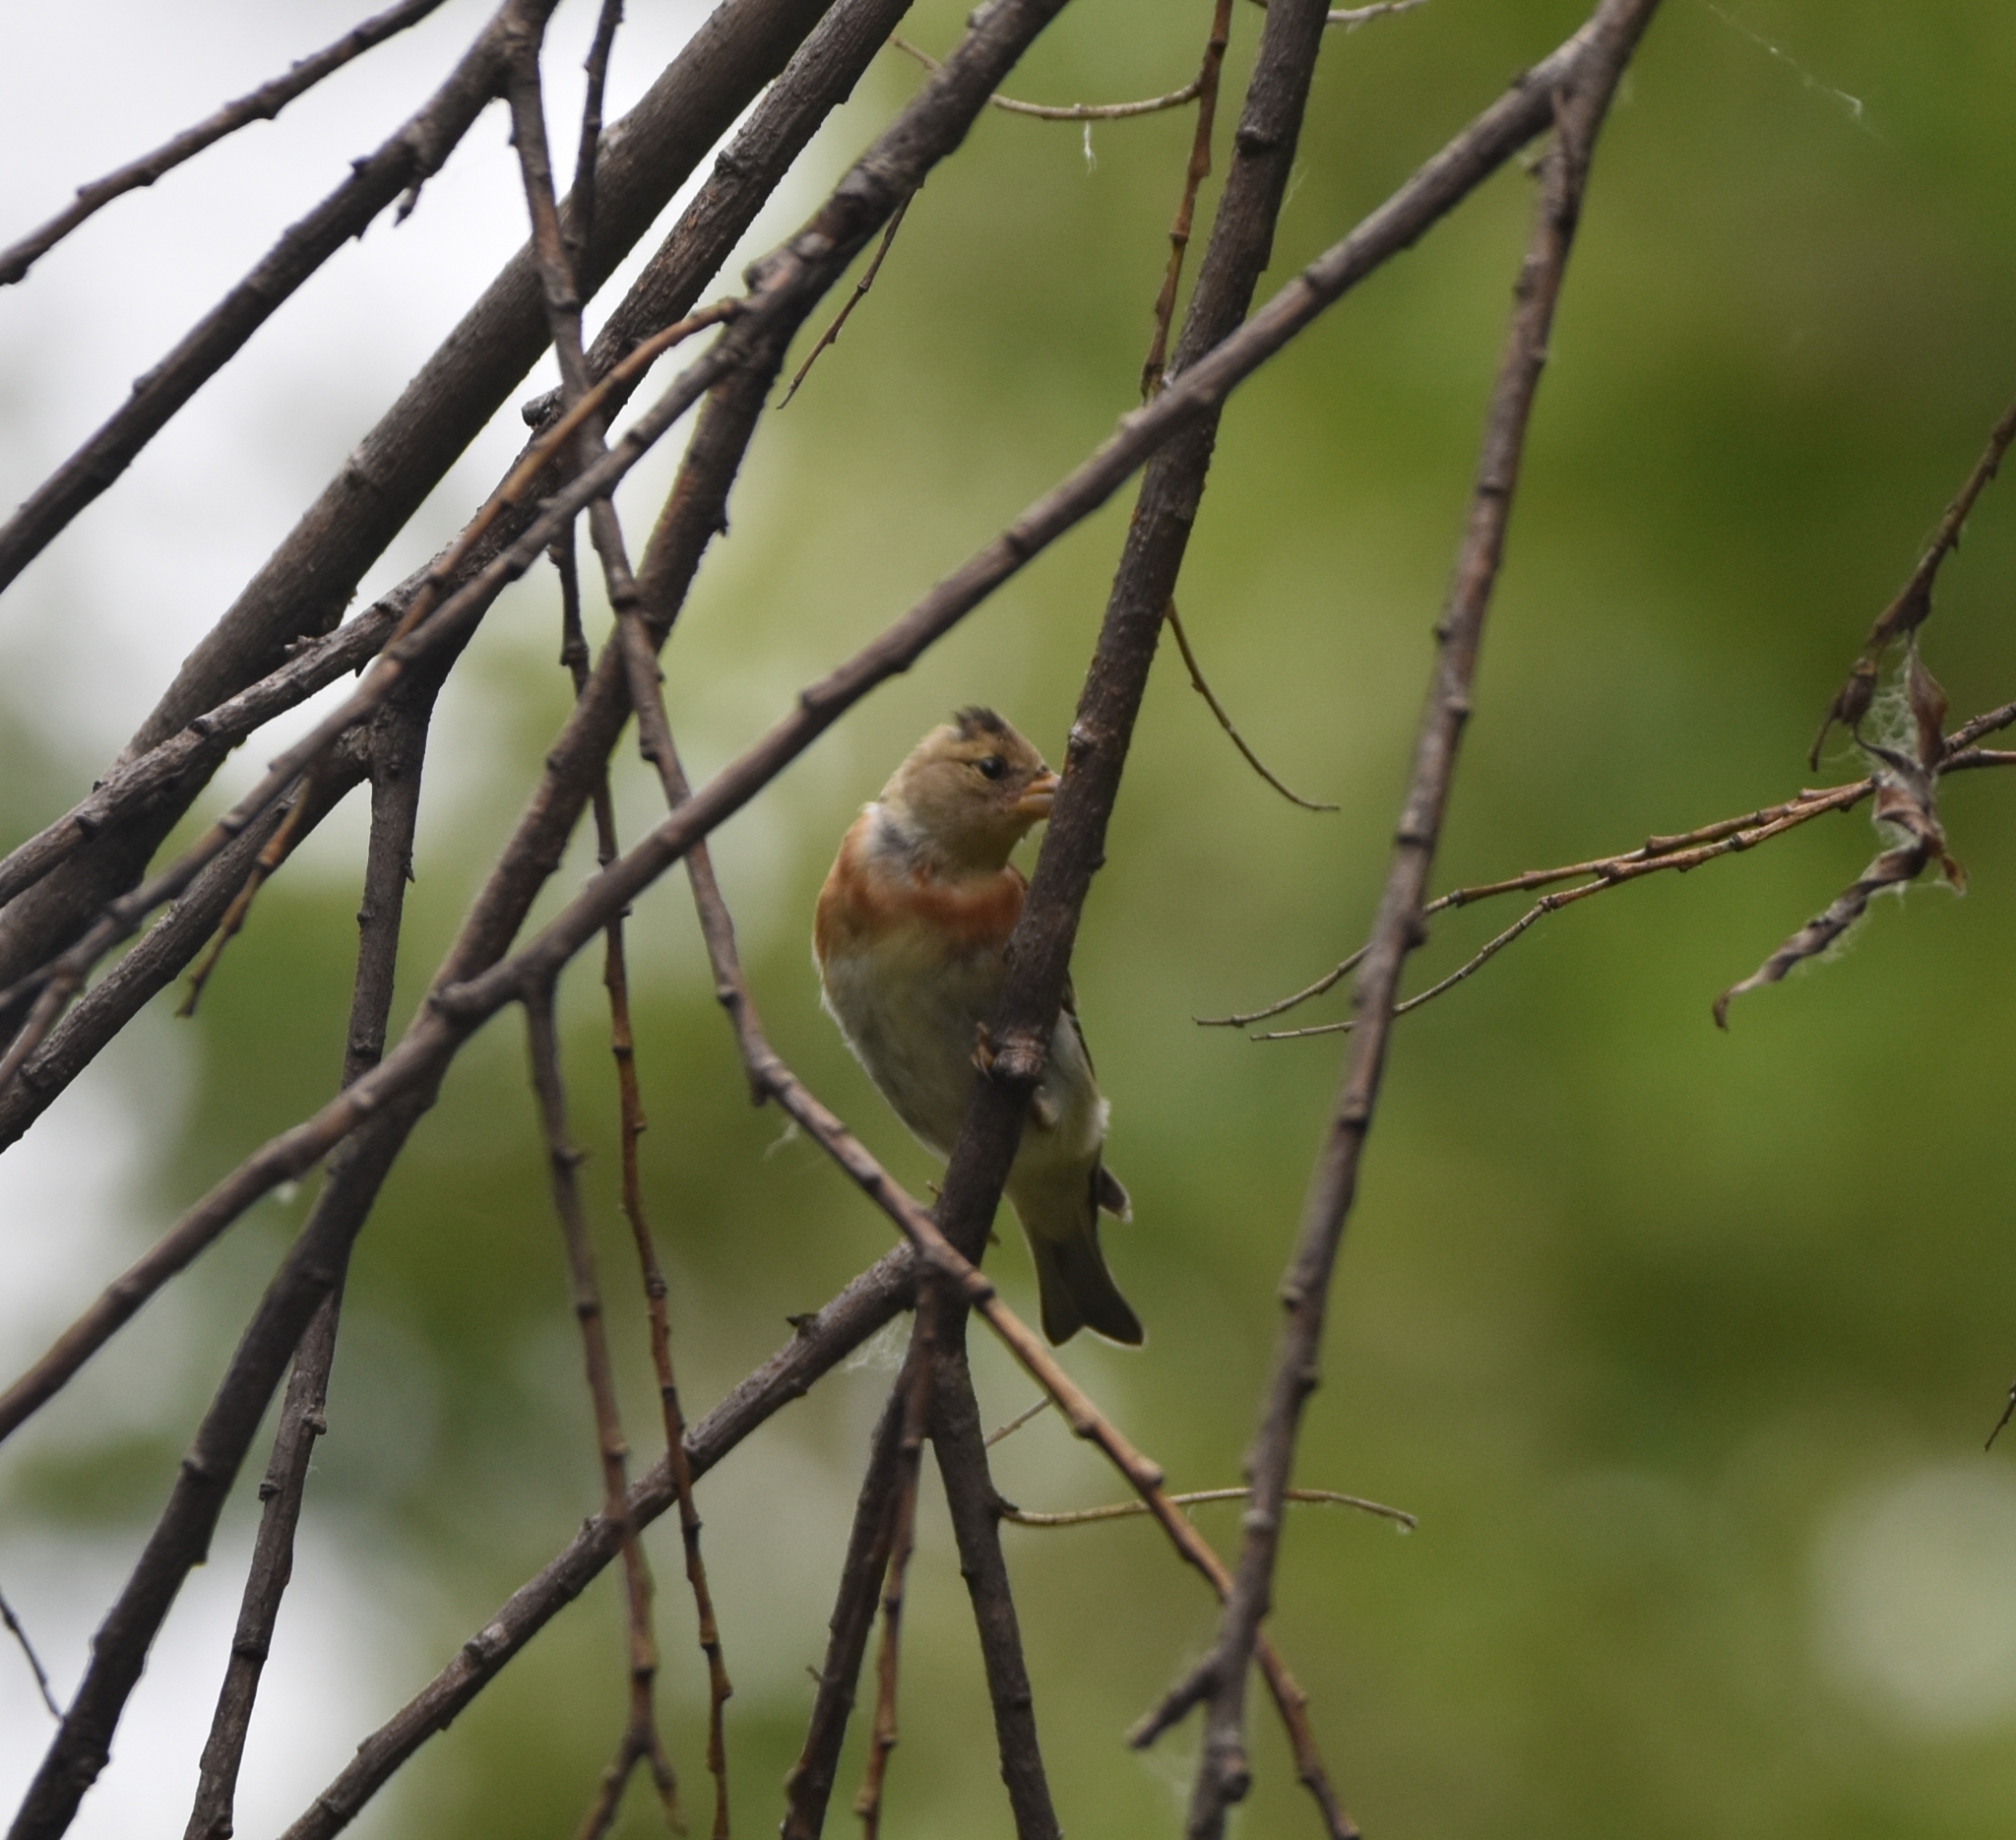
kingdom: Animalia
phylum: Chordata
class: Aves
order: Passeriformes
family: Fringillidae
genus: Fringilla
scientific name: Fringilla montifringilla
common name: Brambling
